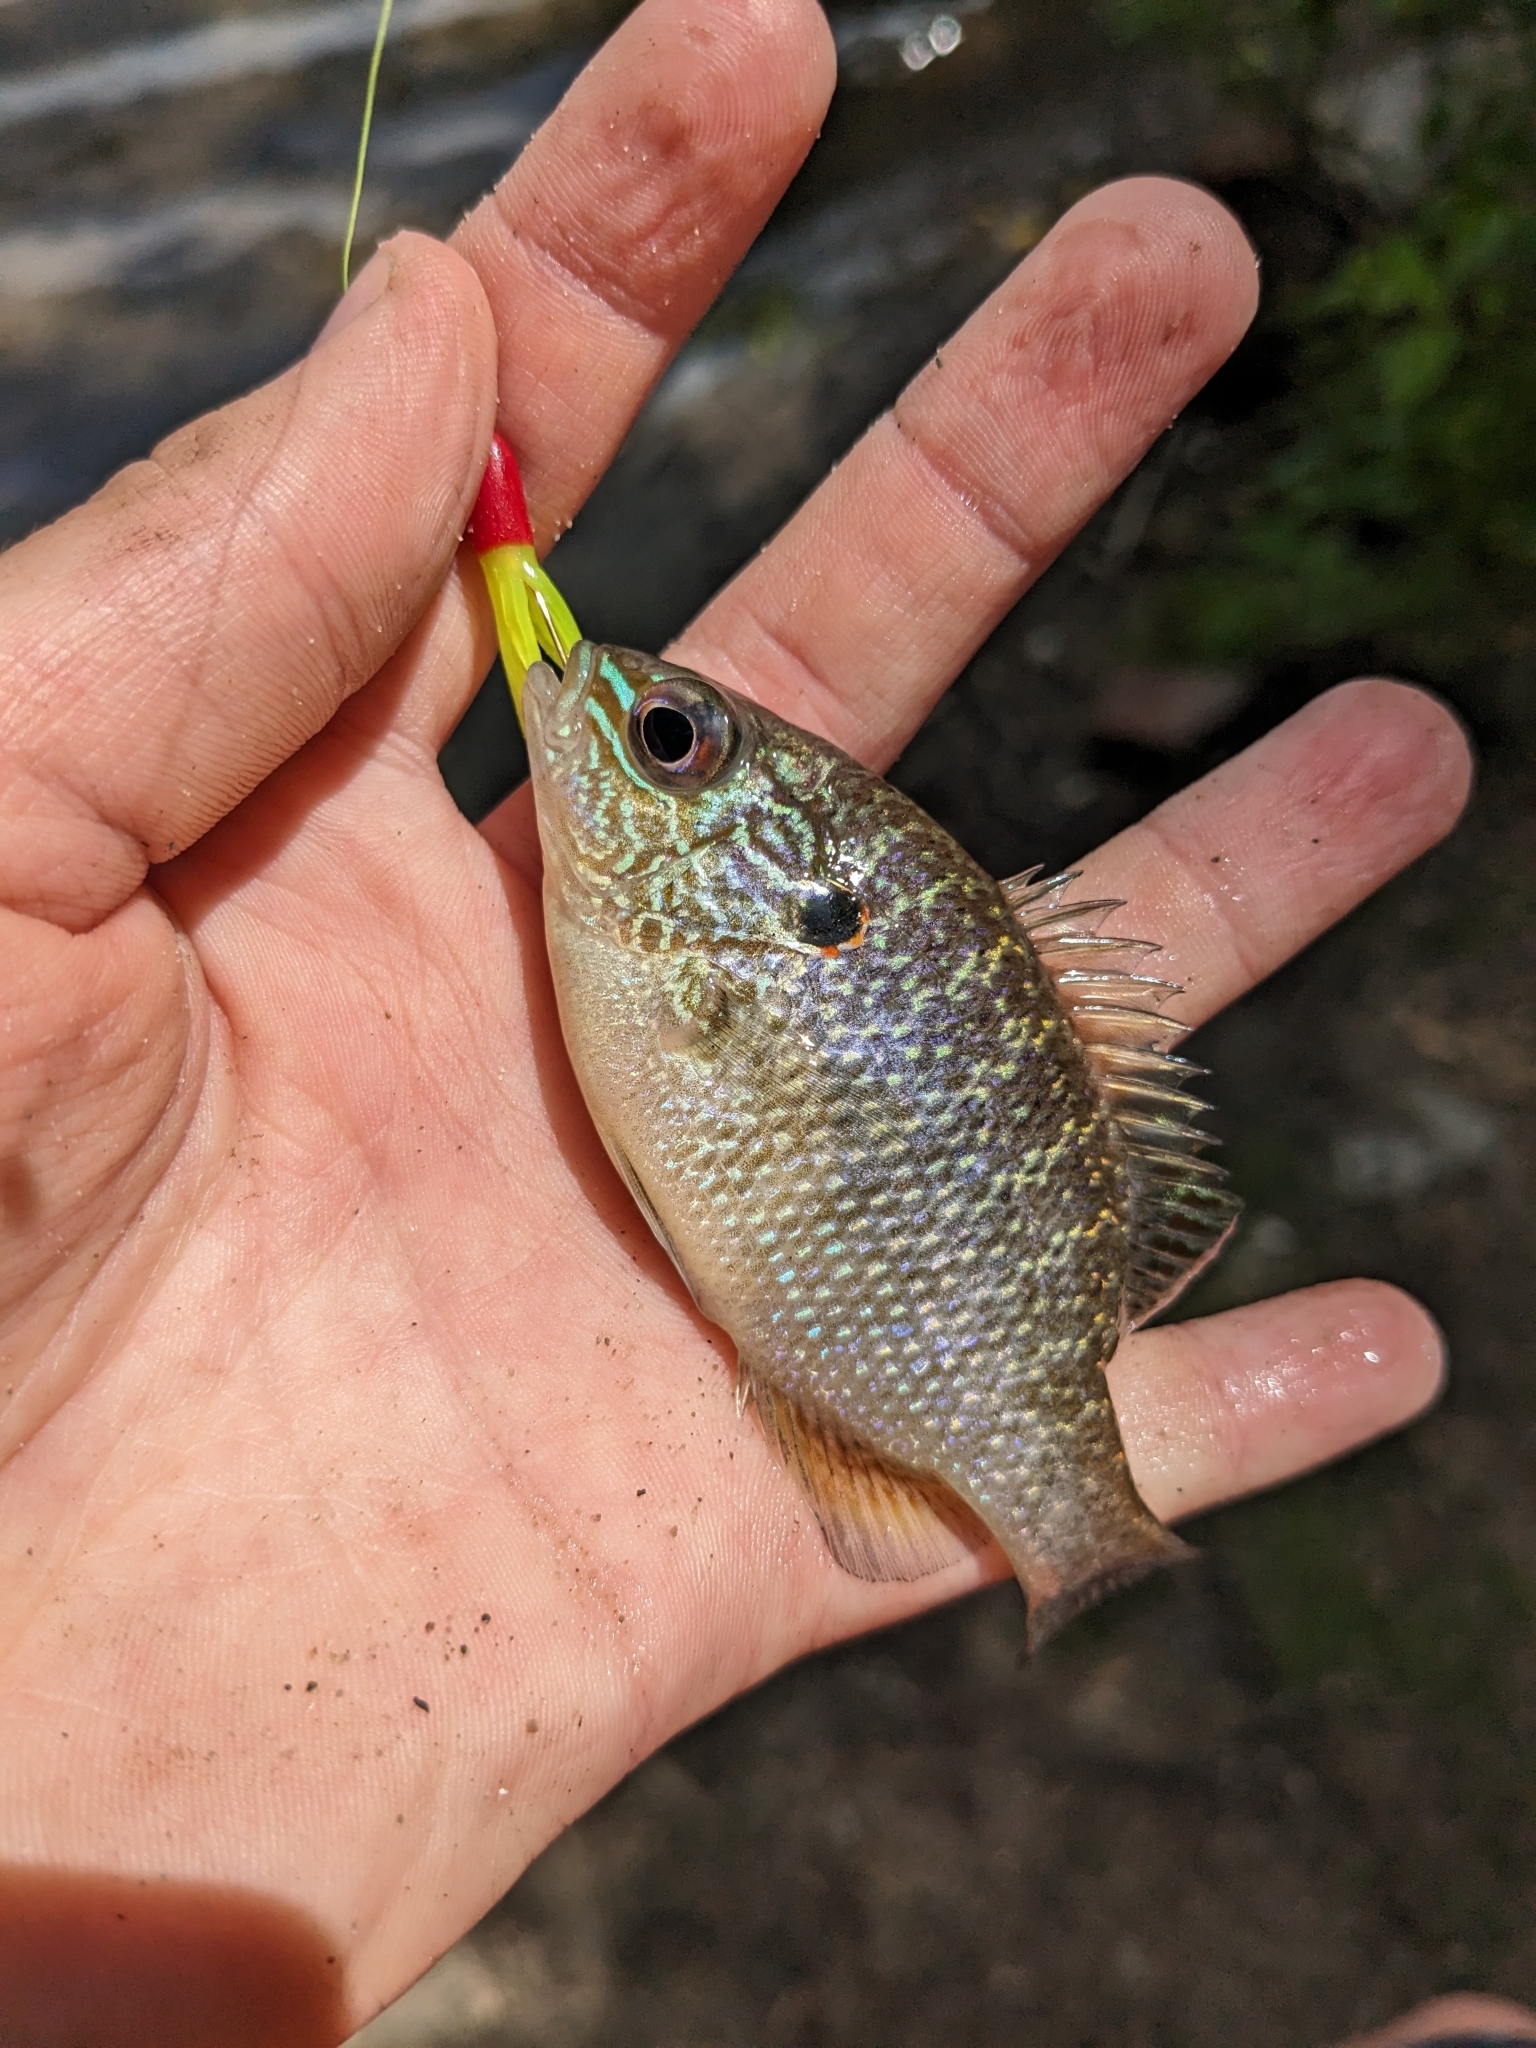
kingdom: Animalia
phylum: Chordata
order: Perciformes
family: Centrarchidae
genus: Lepomis
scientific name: Lepomis peltastes
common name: Northern sunfish
